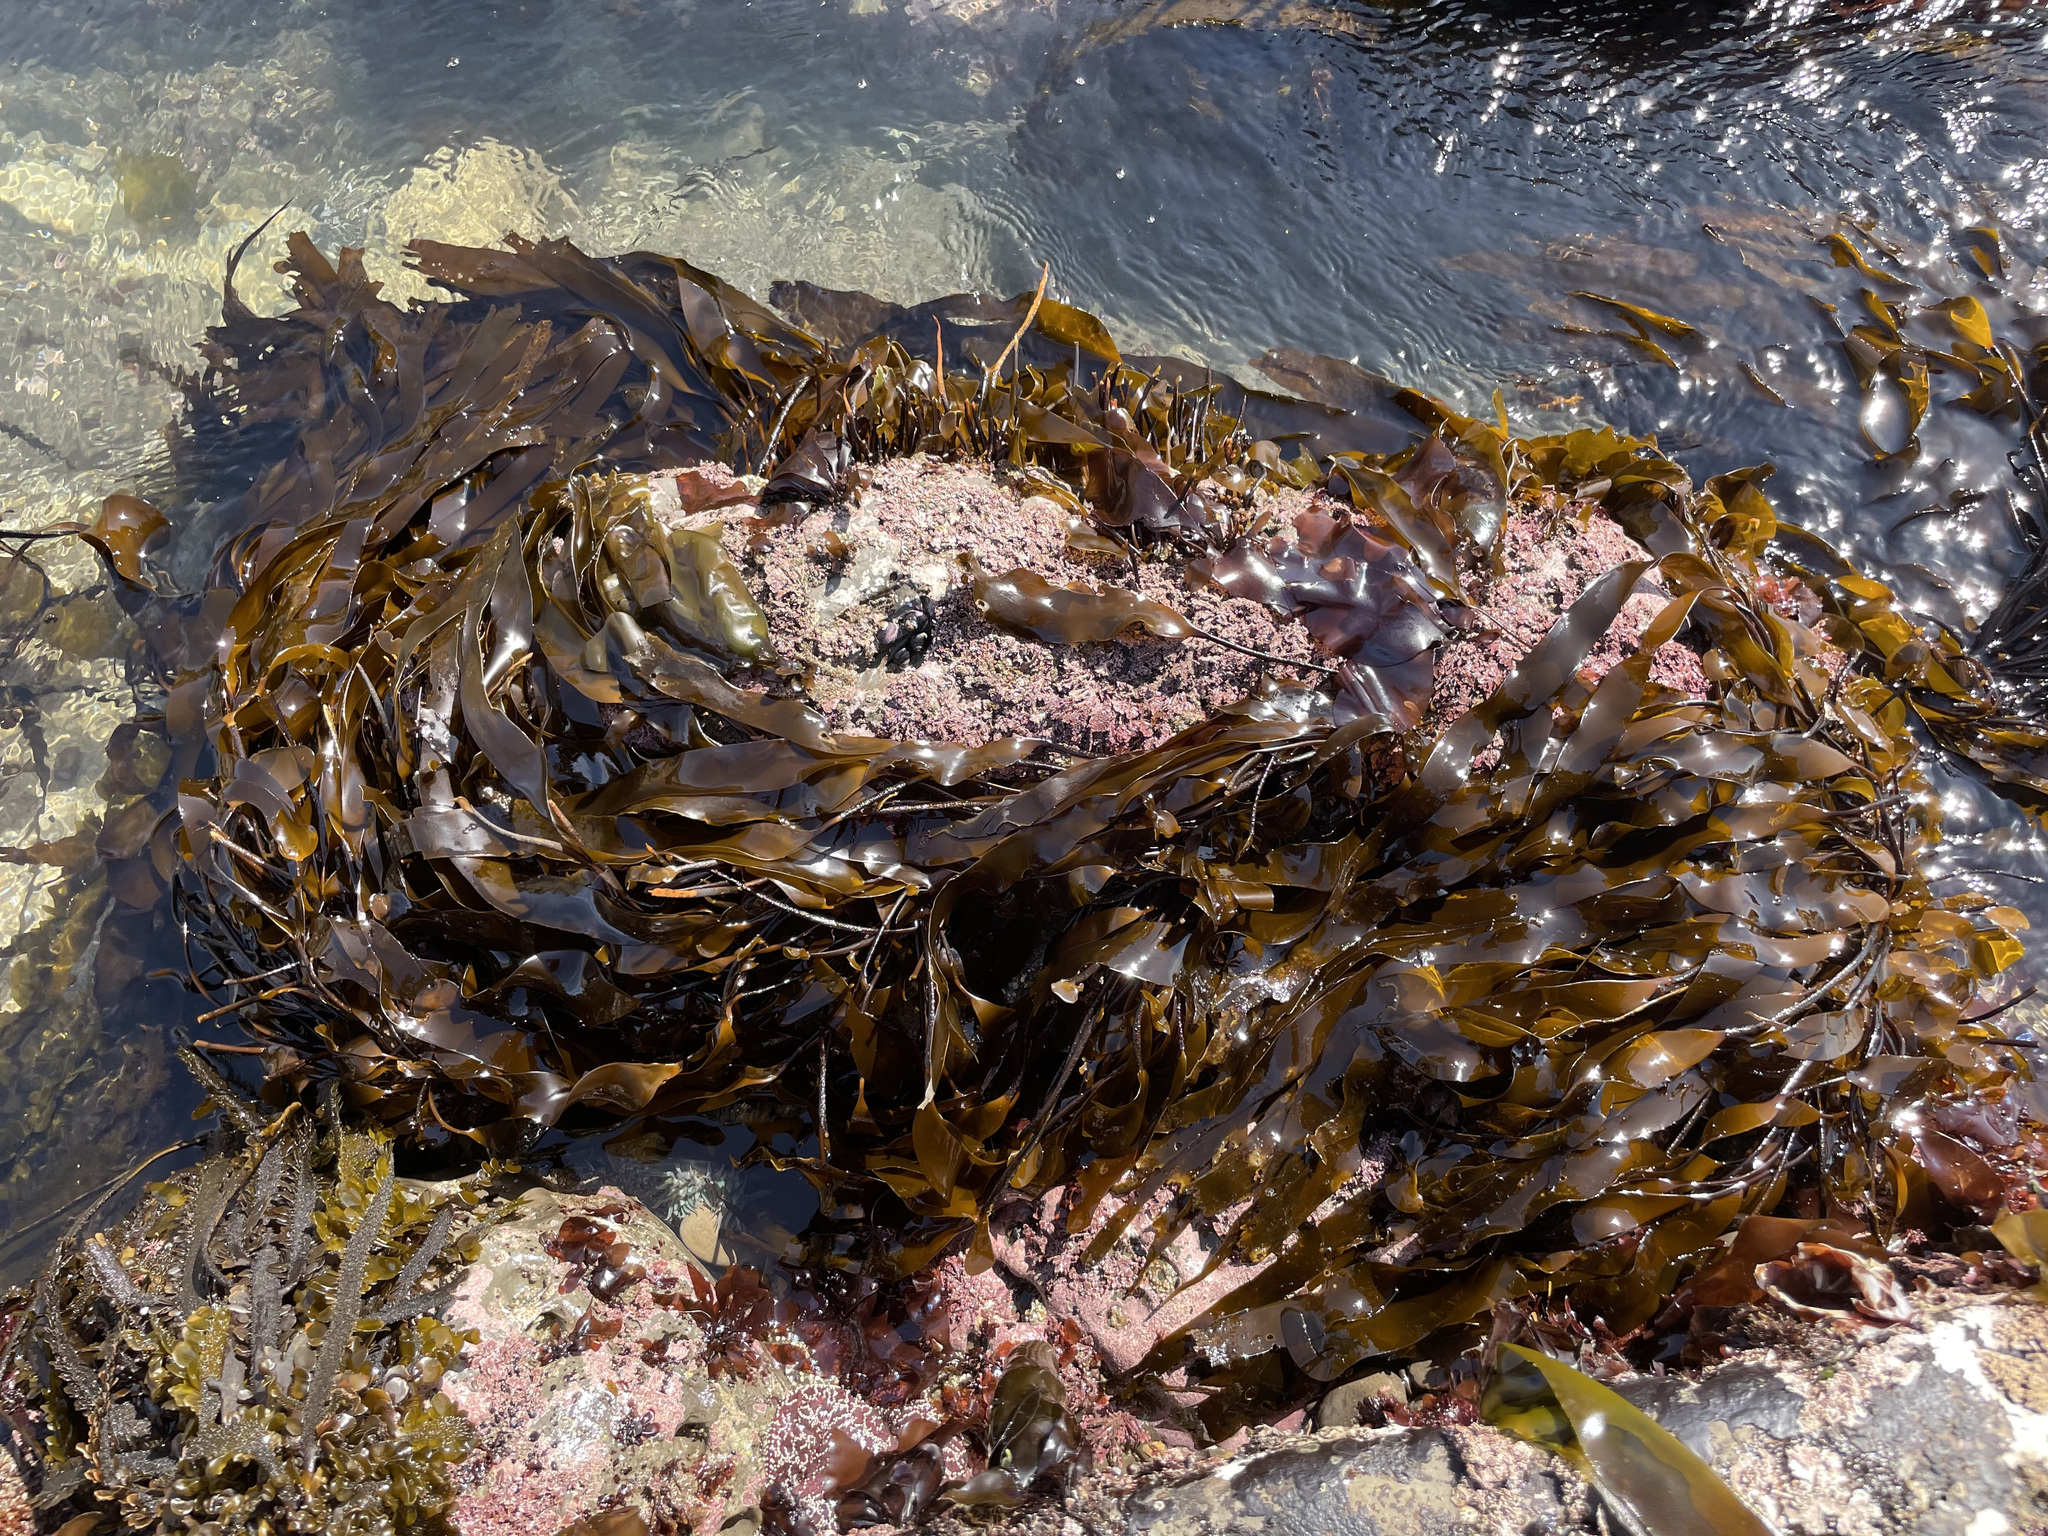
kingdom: Chromista
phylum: Ochrophyta
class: Phaeophyceae
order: Laminariales
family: Laminariaceae
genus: Laminaria
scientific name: Laminaria sinclairii
